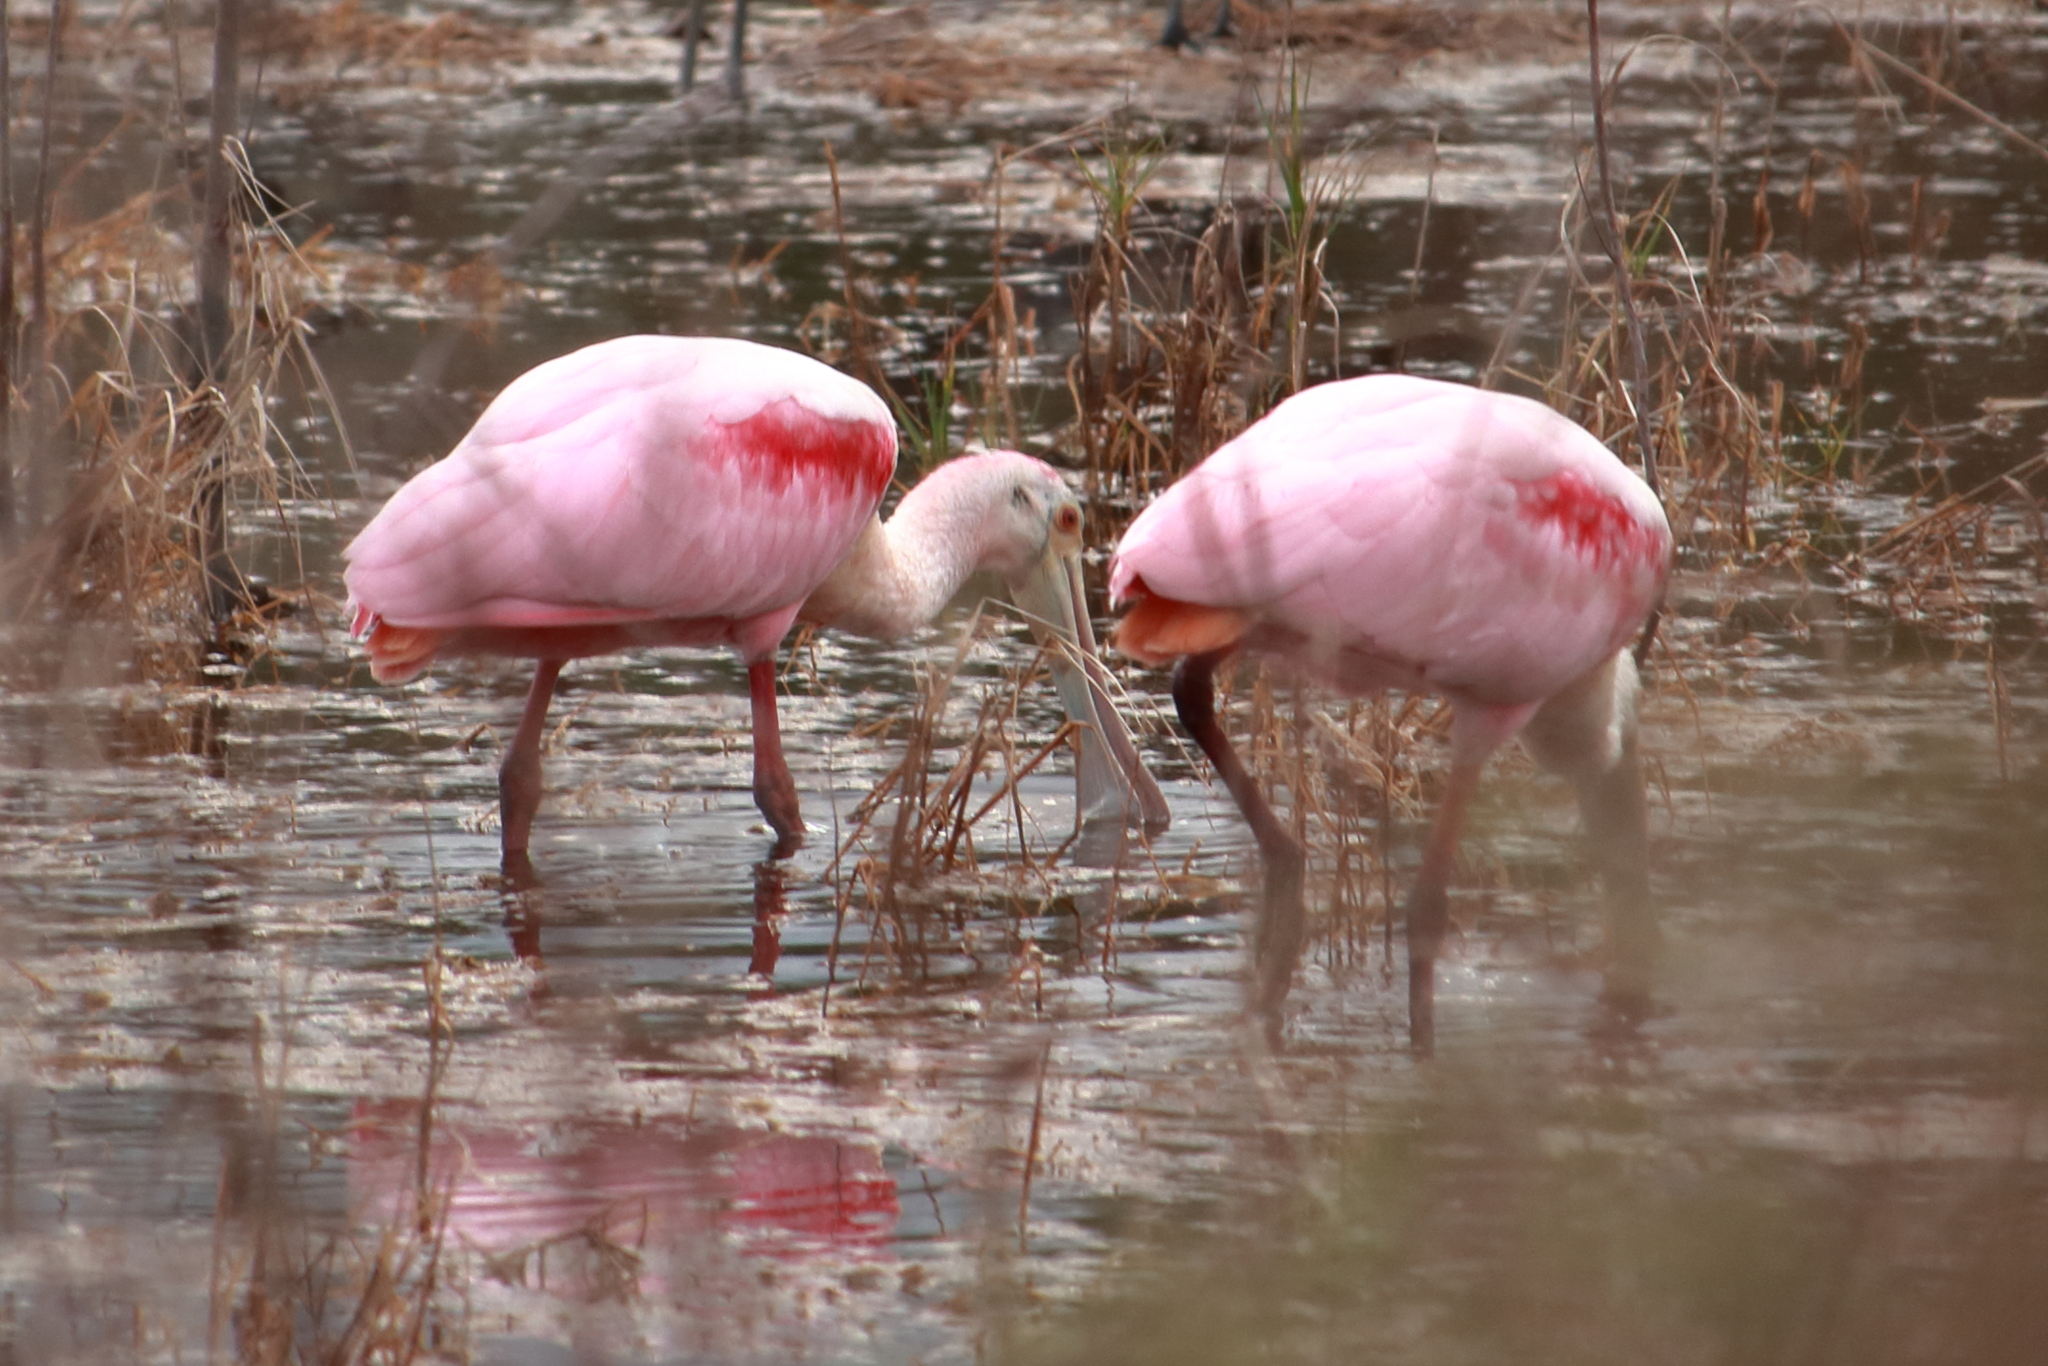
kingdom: Animalia
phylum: Chordata
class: Aves
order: Pelecaniformes
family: Threskiornithidae
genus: Platalea
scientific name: Platalea ajaja
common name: Roseate spoonbill
